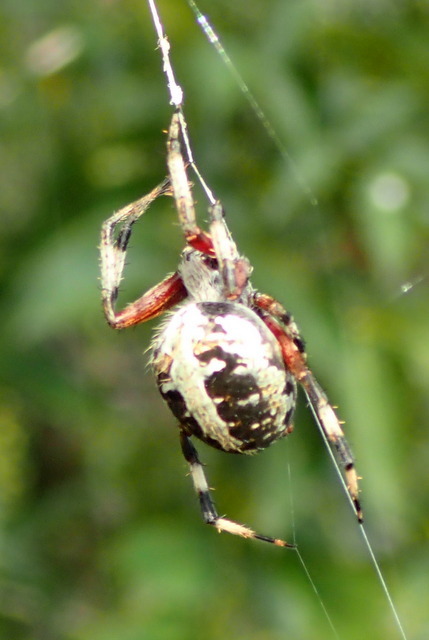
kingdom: Animalia
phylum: Arthropoda
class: Arachnida
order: Araneae
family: Araneidae
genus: Neoscona
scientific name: Neoscona domiciliorum
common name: Red-femured spotted orbweaver
